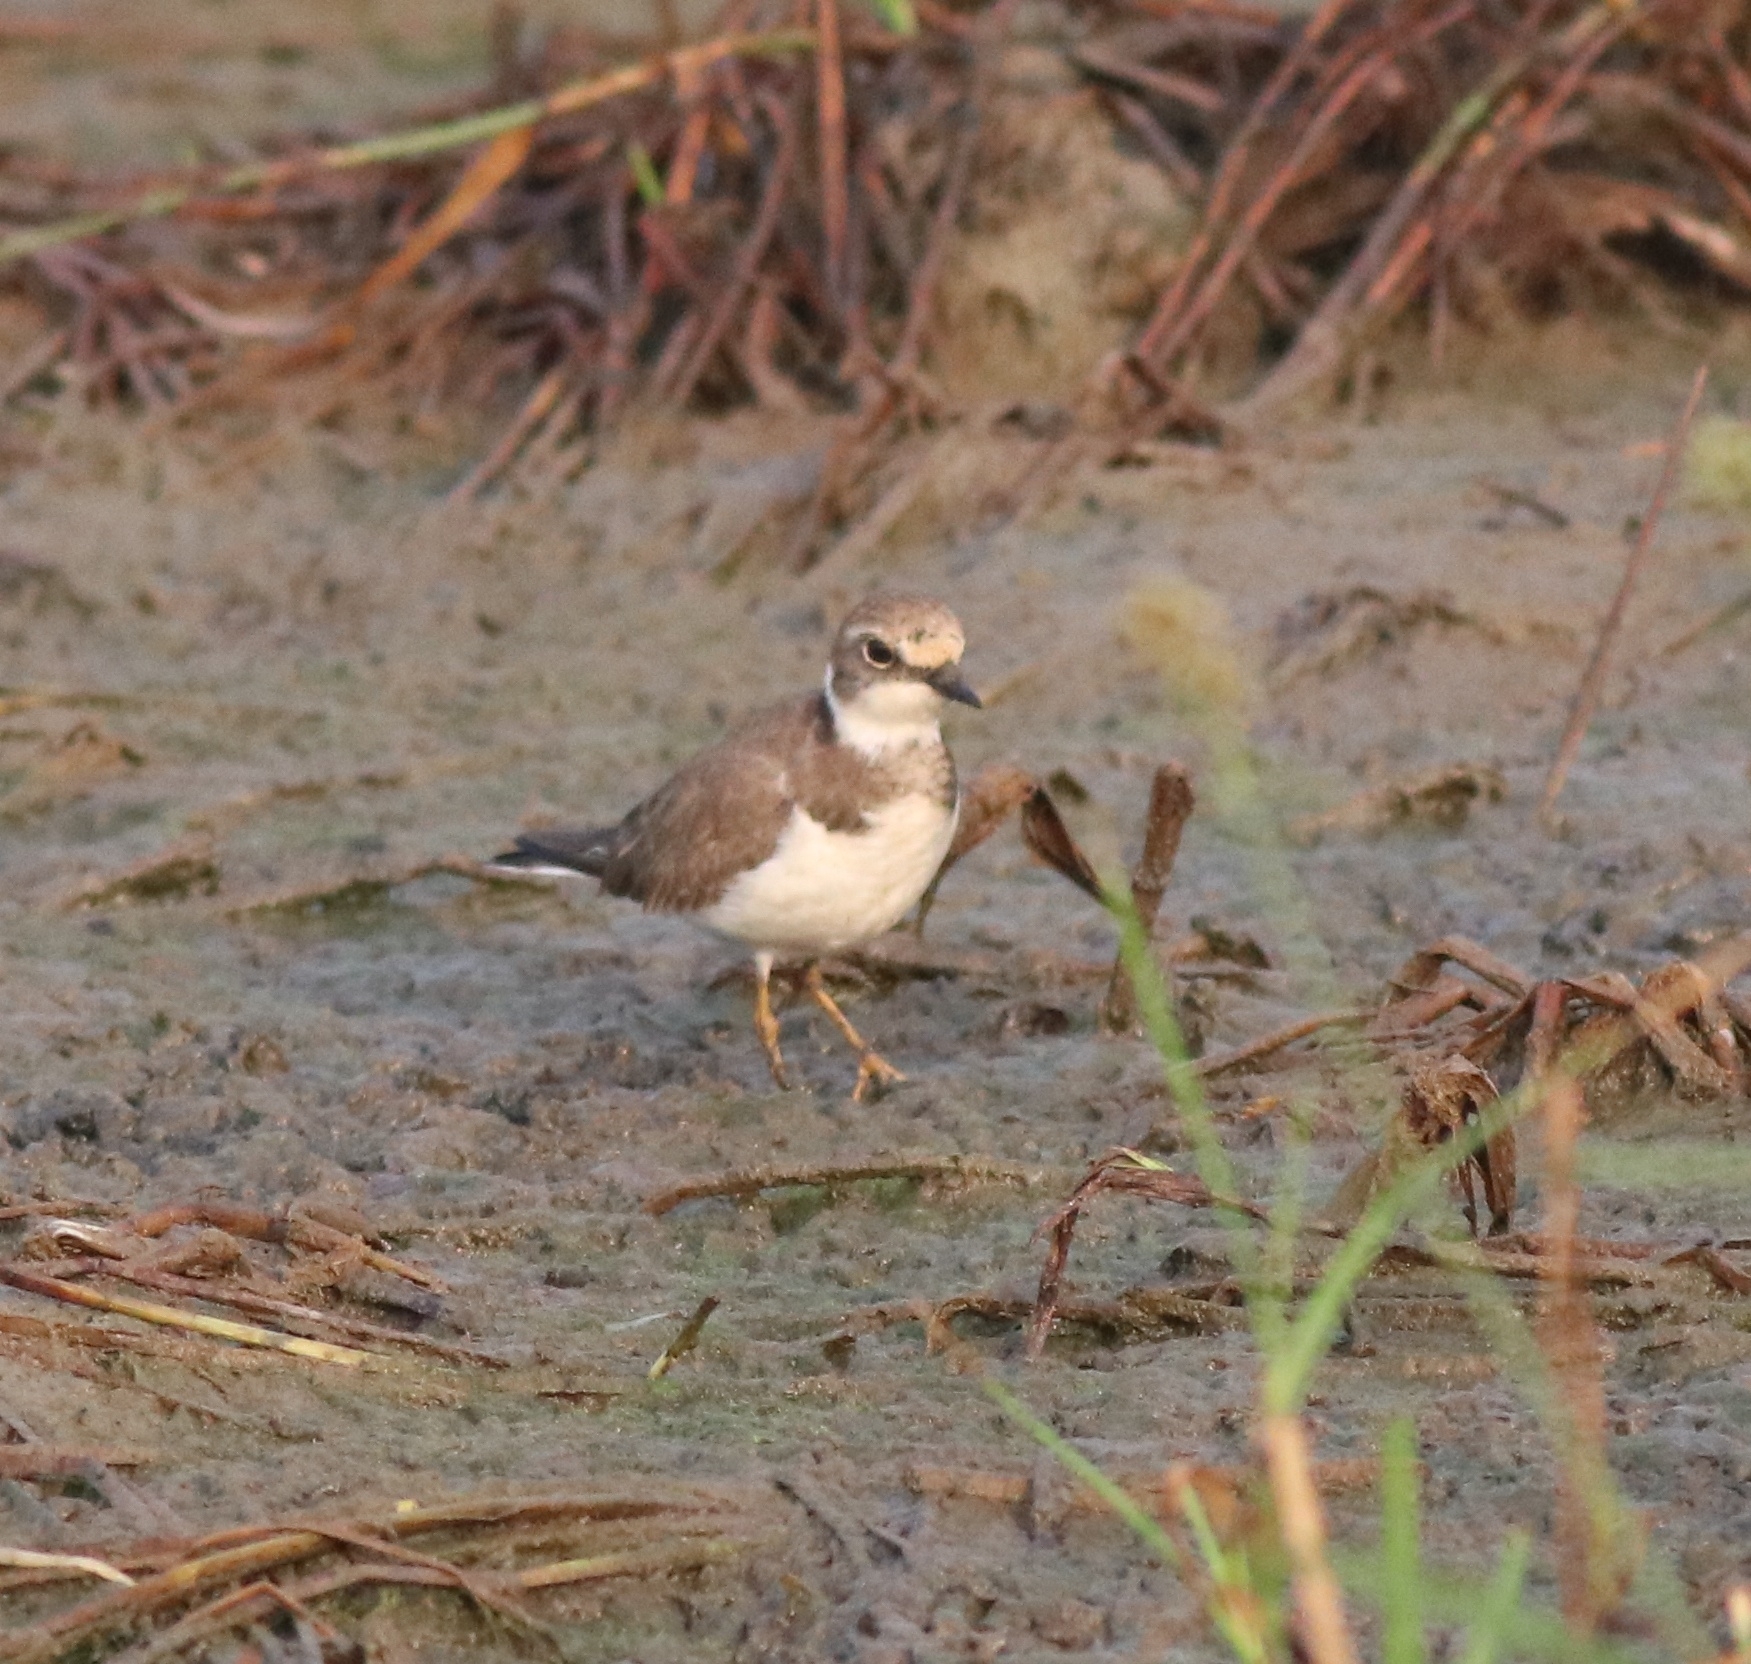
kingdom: Animalia
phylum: Chordata
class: Aves
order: Charadriiformes
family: Charadriidae
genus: Charadrius
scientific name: Charadrius dubius
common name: Little ringed plover
